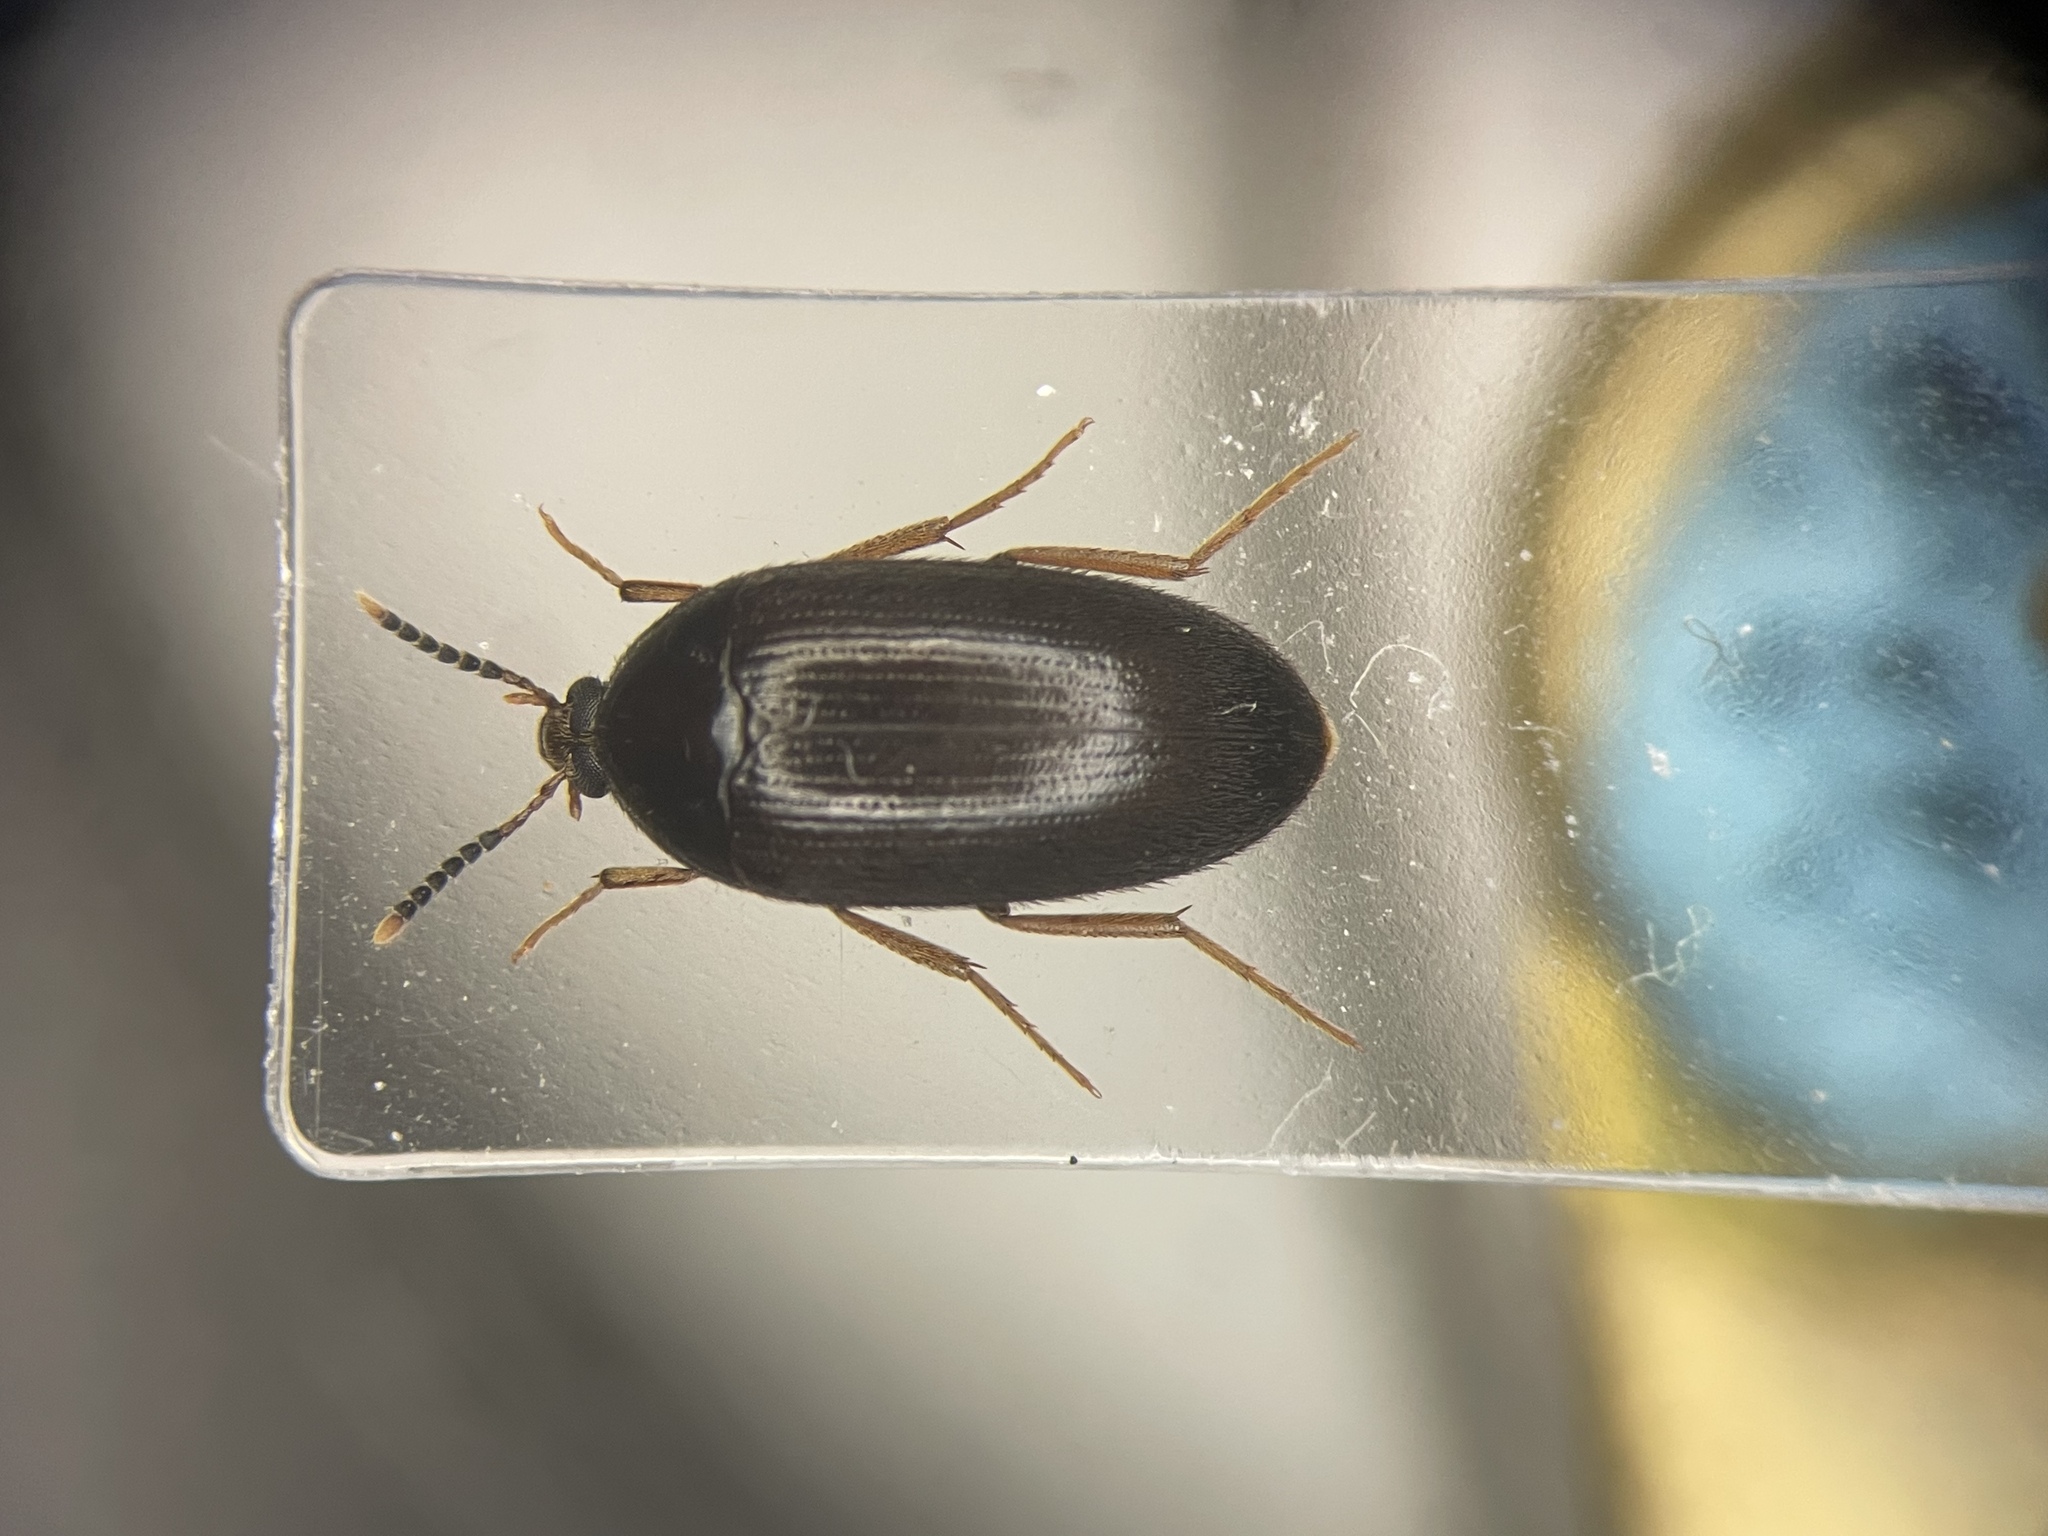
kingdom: Animalia
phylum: Arthropoda
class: Insecta
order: Coleoptera
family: Tetratomidae
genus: Eustrophopsis
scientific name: Eustrophopsis bicolor
